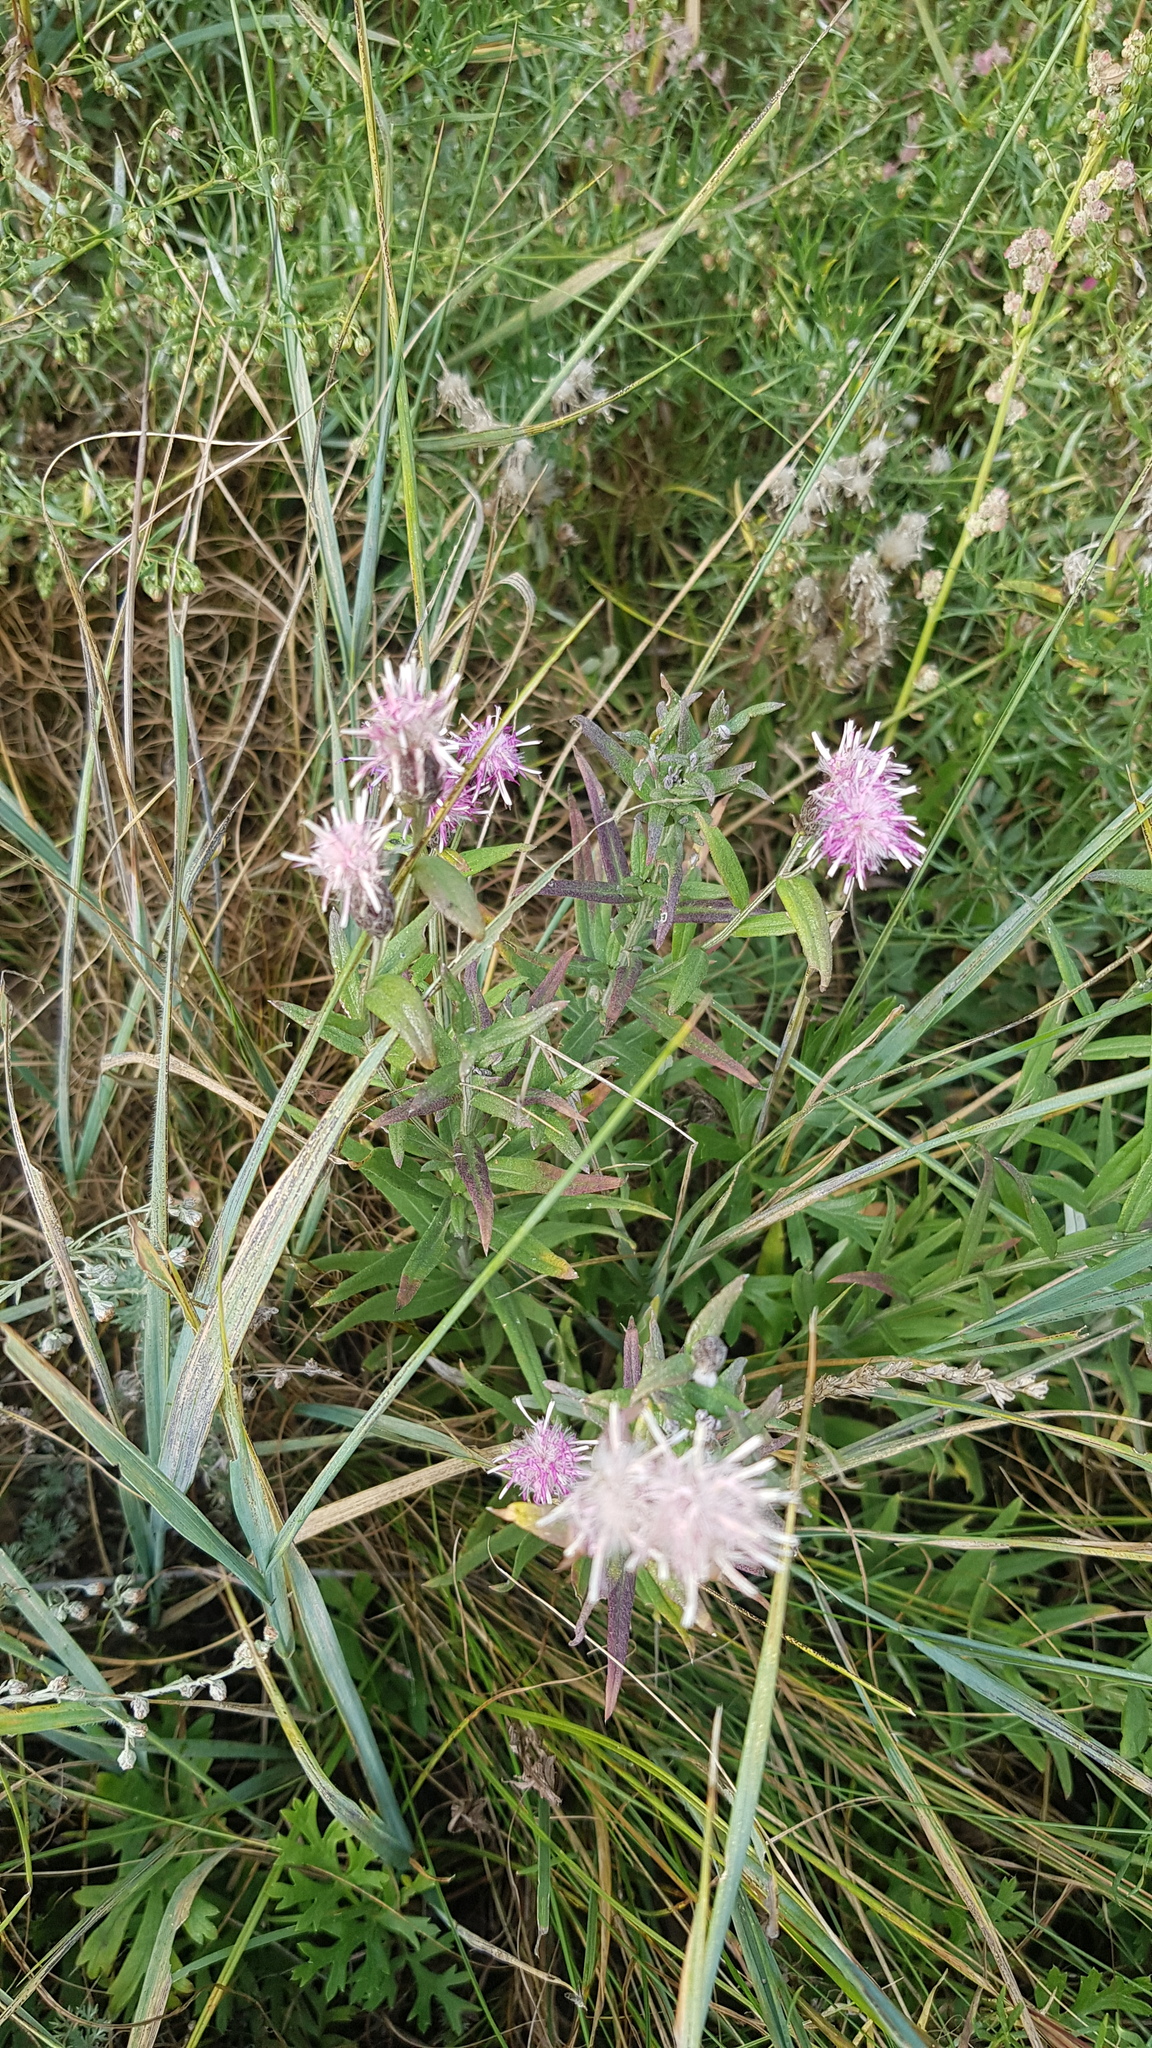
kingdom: Plantae
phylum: Tracheophyta
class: Magnoliopsida
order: Asterales
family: Asteraceae
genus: Saussurea
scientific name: Saussurea salicifolia
